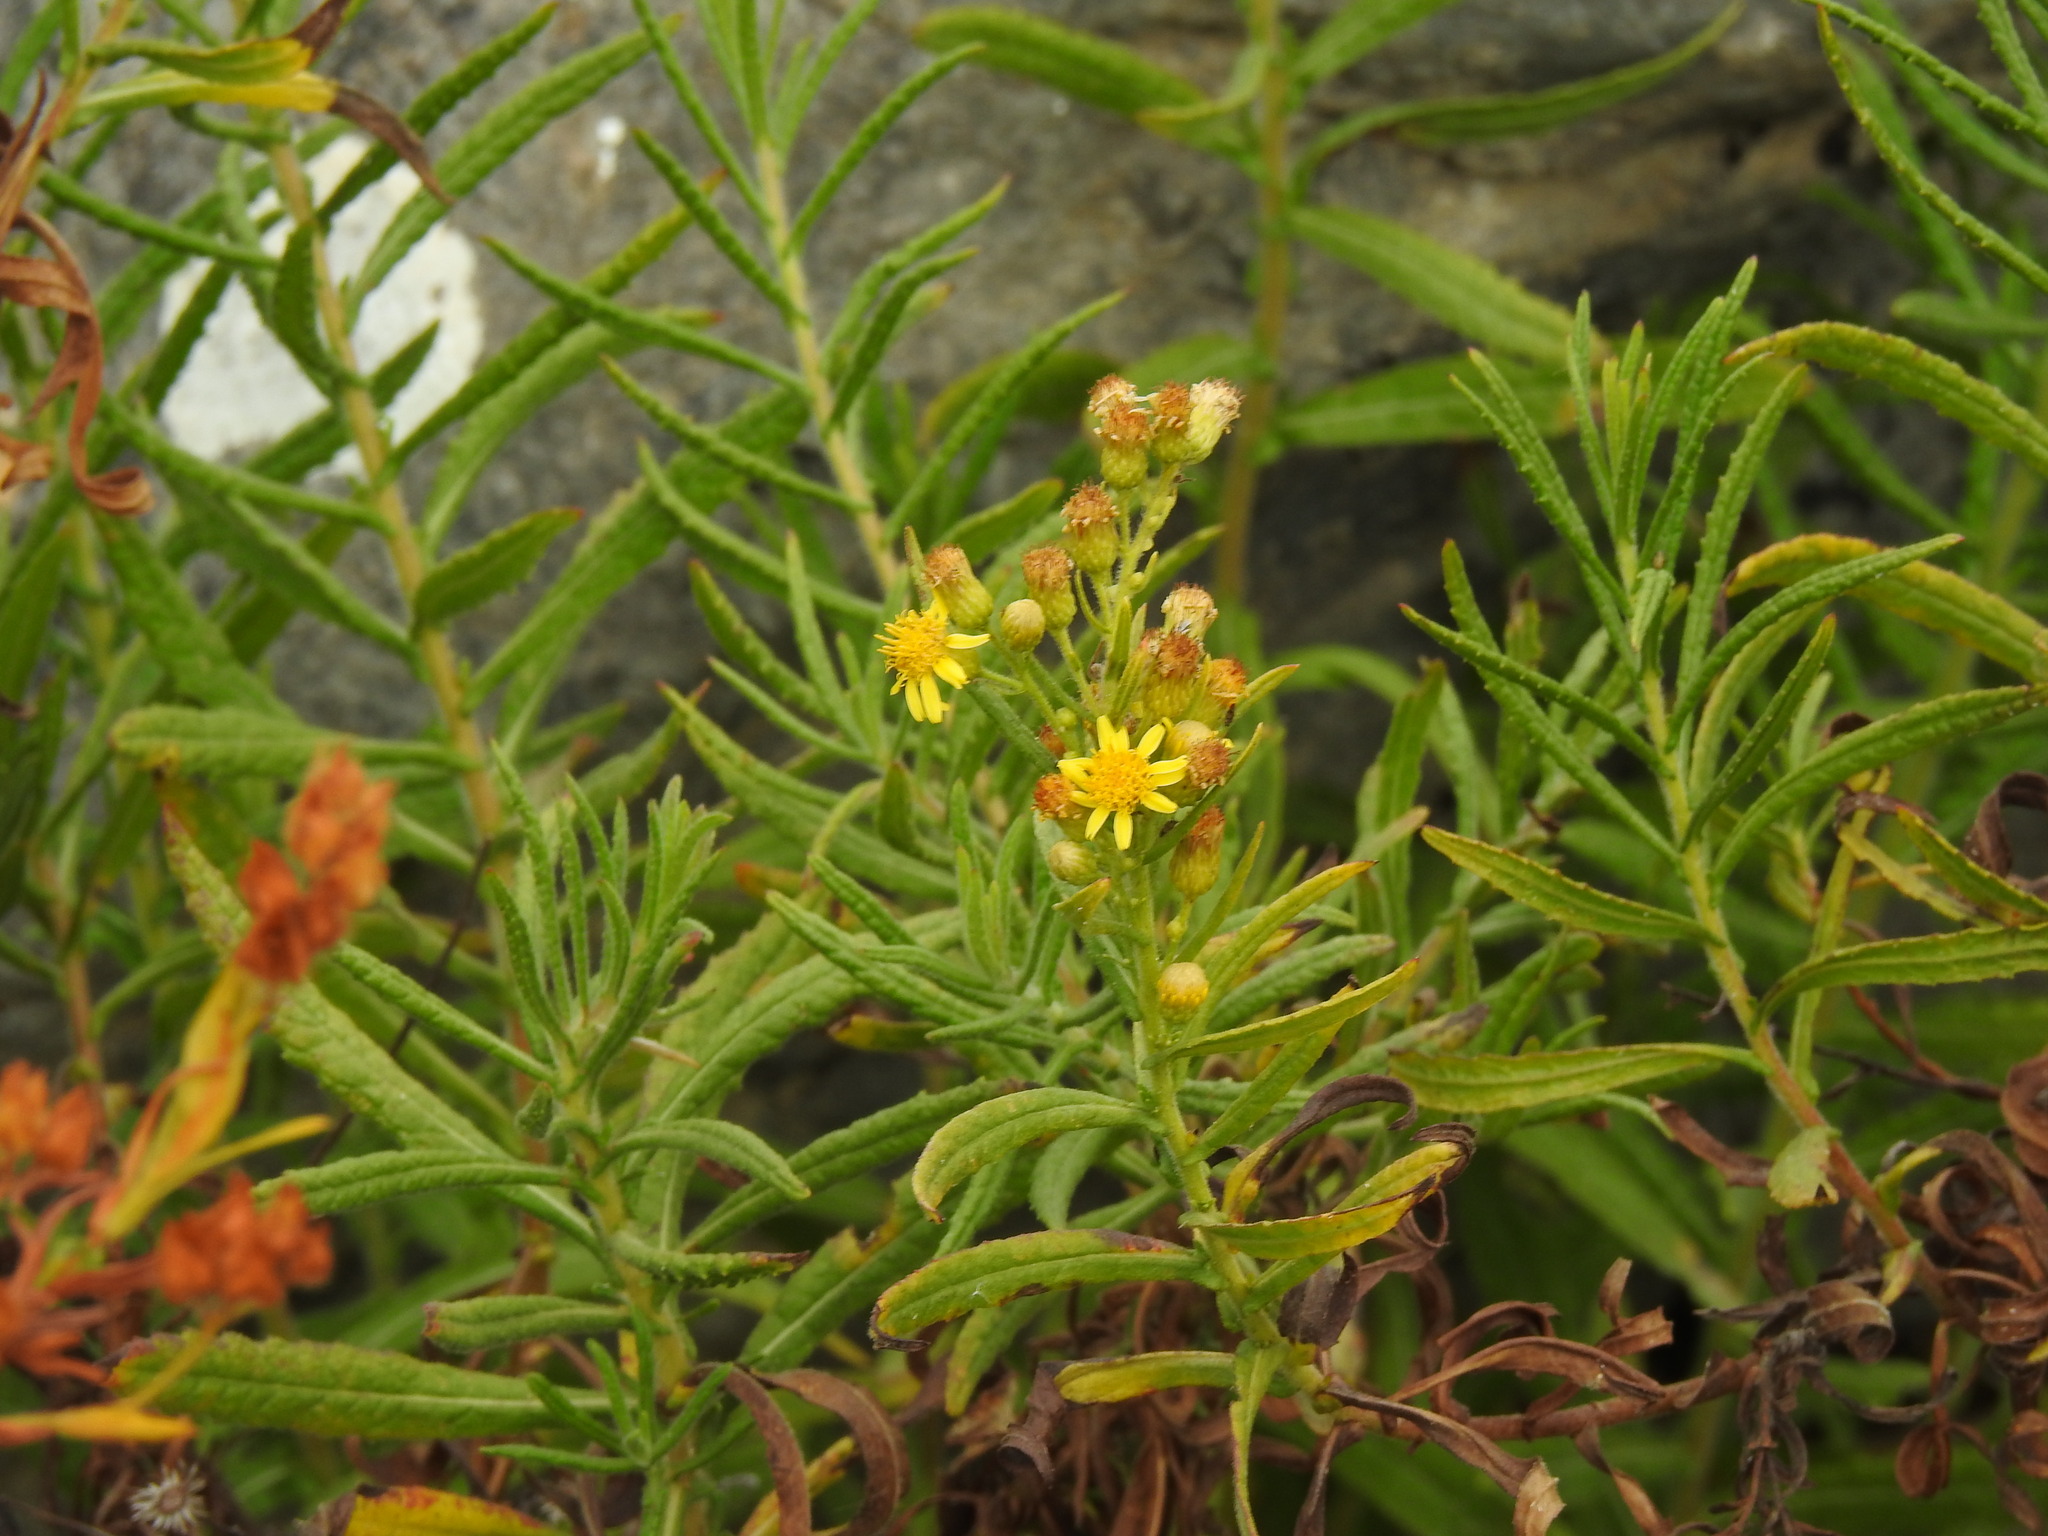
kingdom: Plantae
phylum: Tracheophyta
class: Magnoliopsida
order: Asterales
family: Asteraceae
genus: Dittrichia
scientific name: Dittrichia viscosa
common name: Woody fleabane
